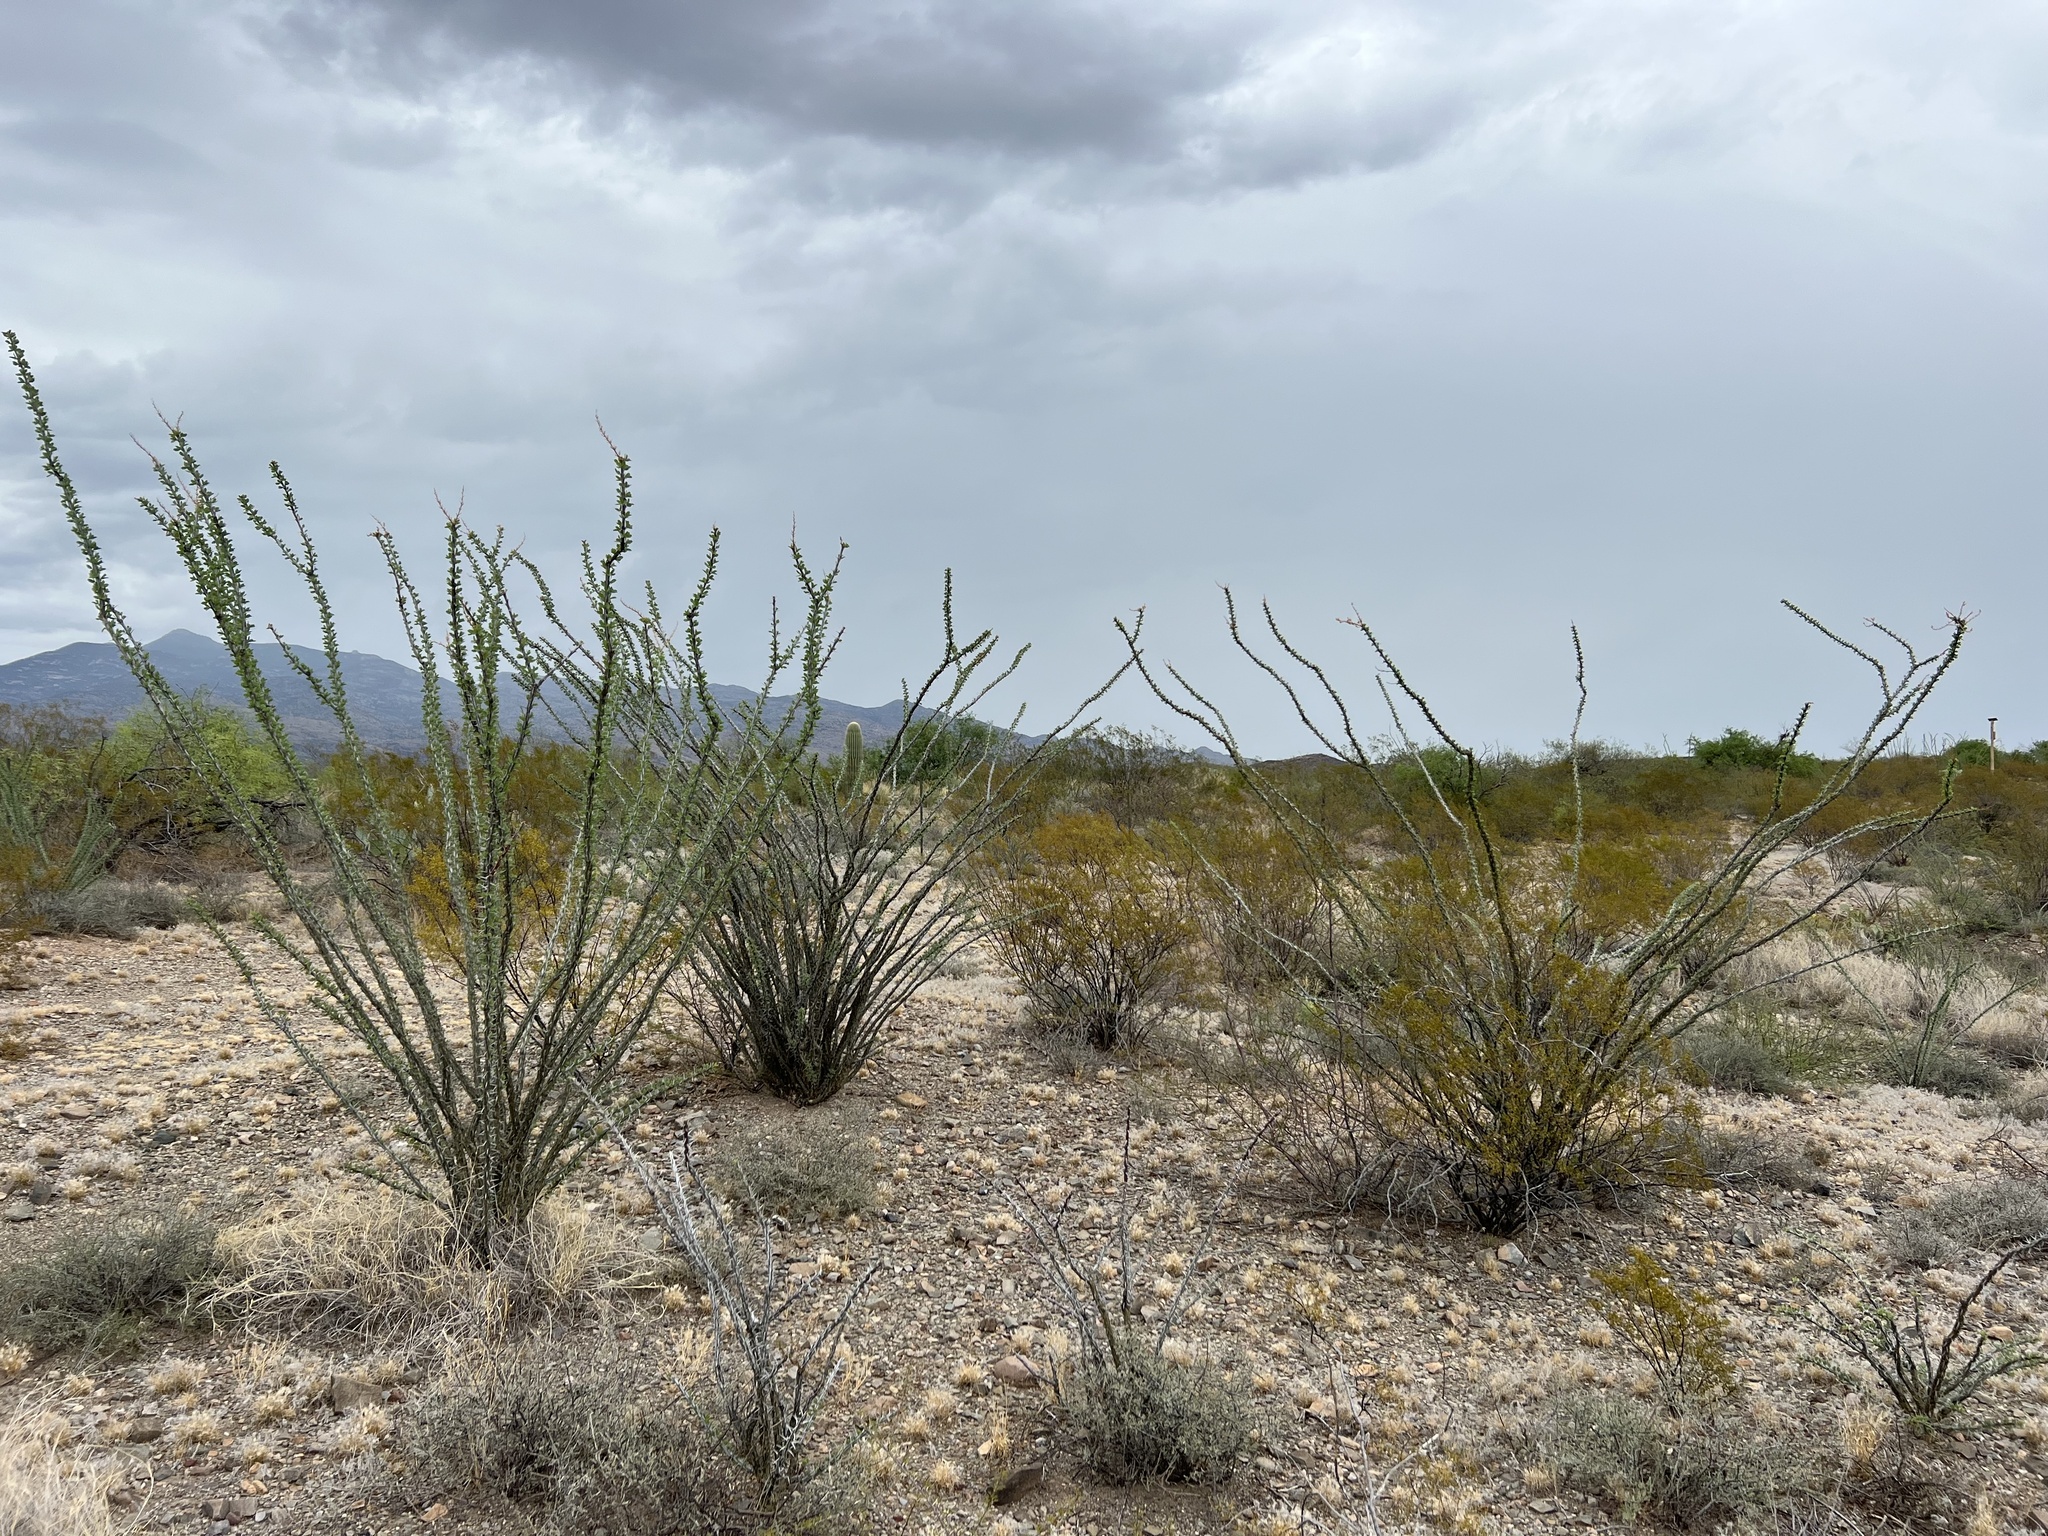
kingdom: Plantae
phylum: Tracheophyta
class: Magnoliopsida
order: Ericales
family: Fouquieriaceae
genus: Fouquieria
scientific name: Fouquieria splendens
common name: Vine-cactus
